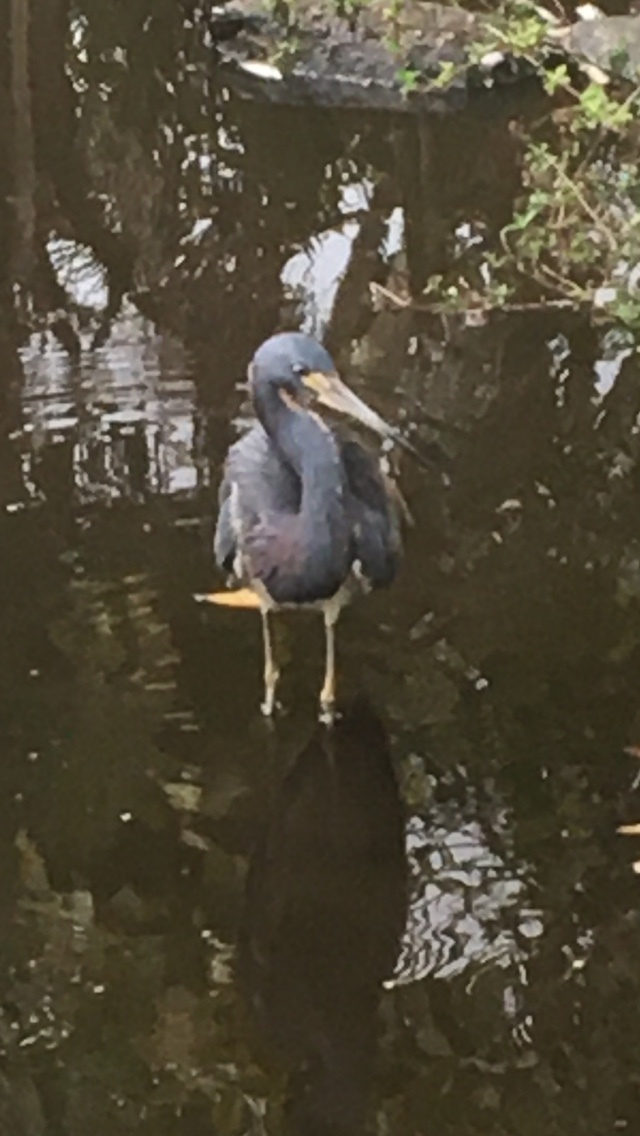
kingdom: Animalia
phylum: Chordata
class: Aves
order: Pelecaniformes
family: Ardeidae
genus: Egretta
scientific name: Egretta tricolor
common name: Tricolored heron
